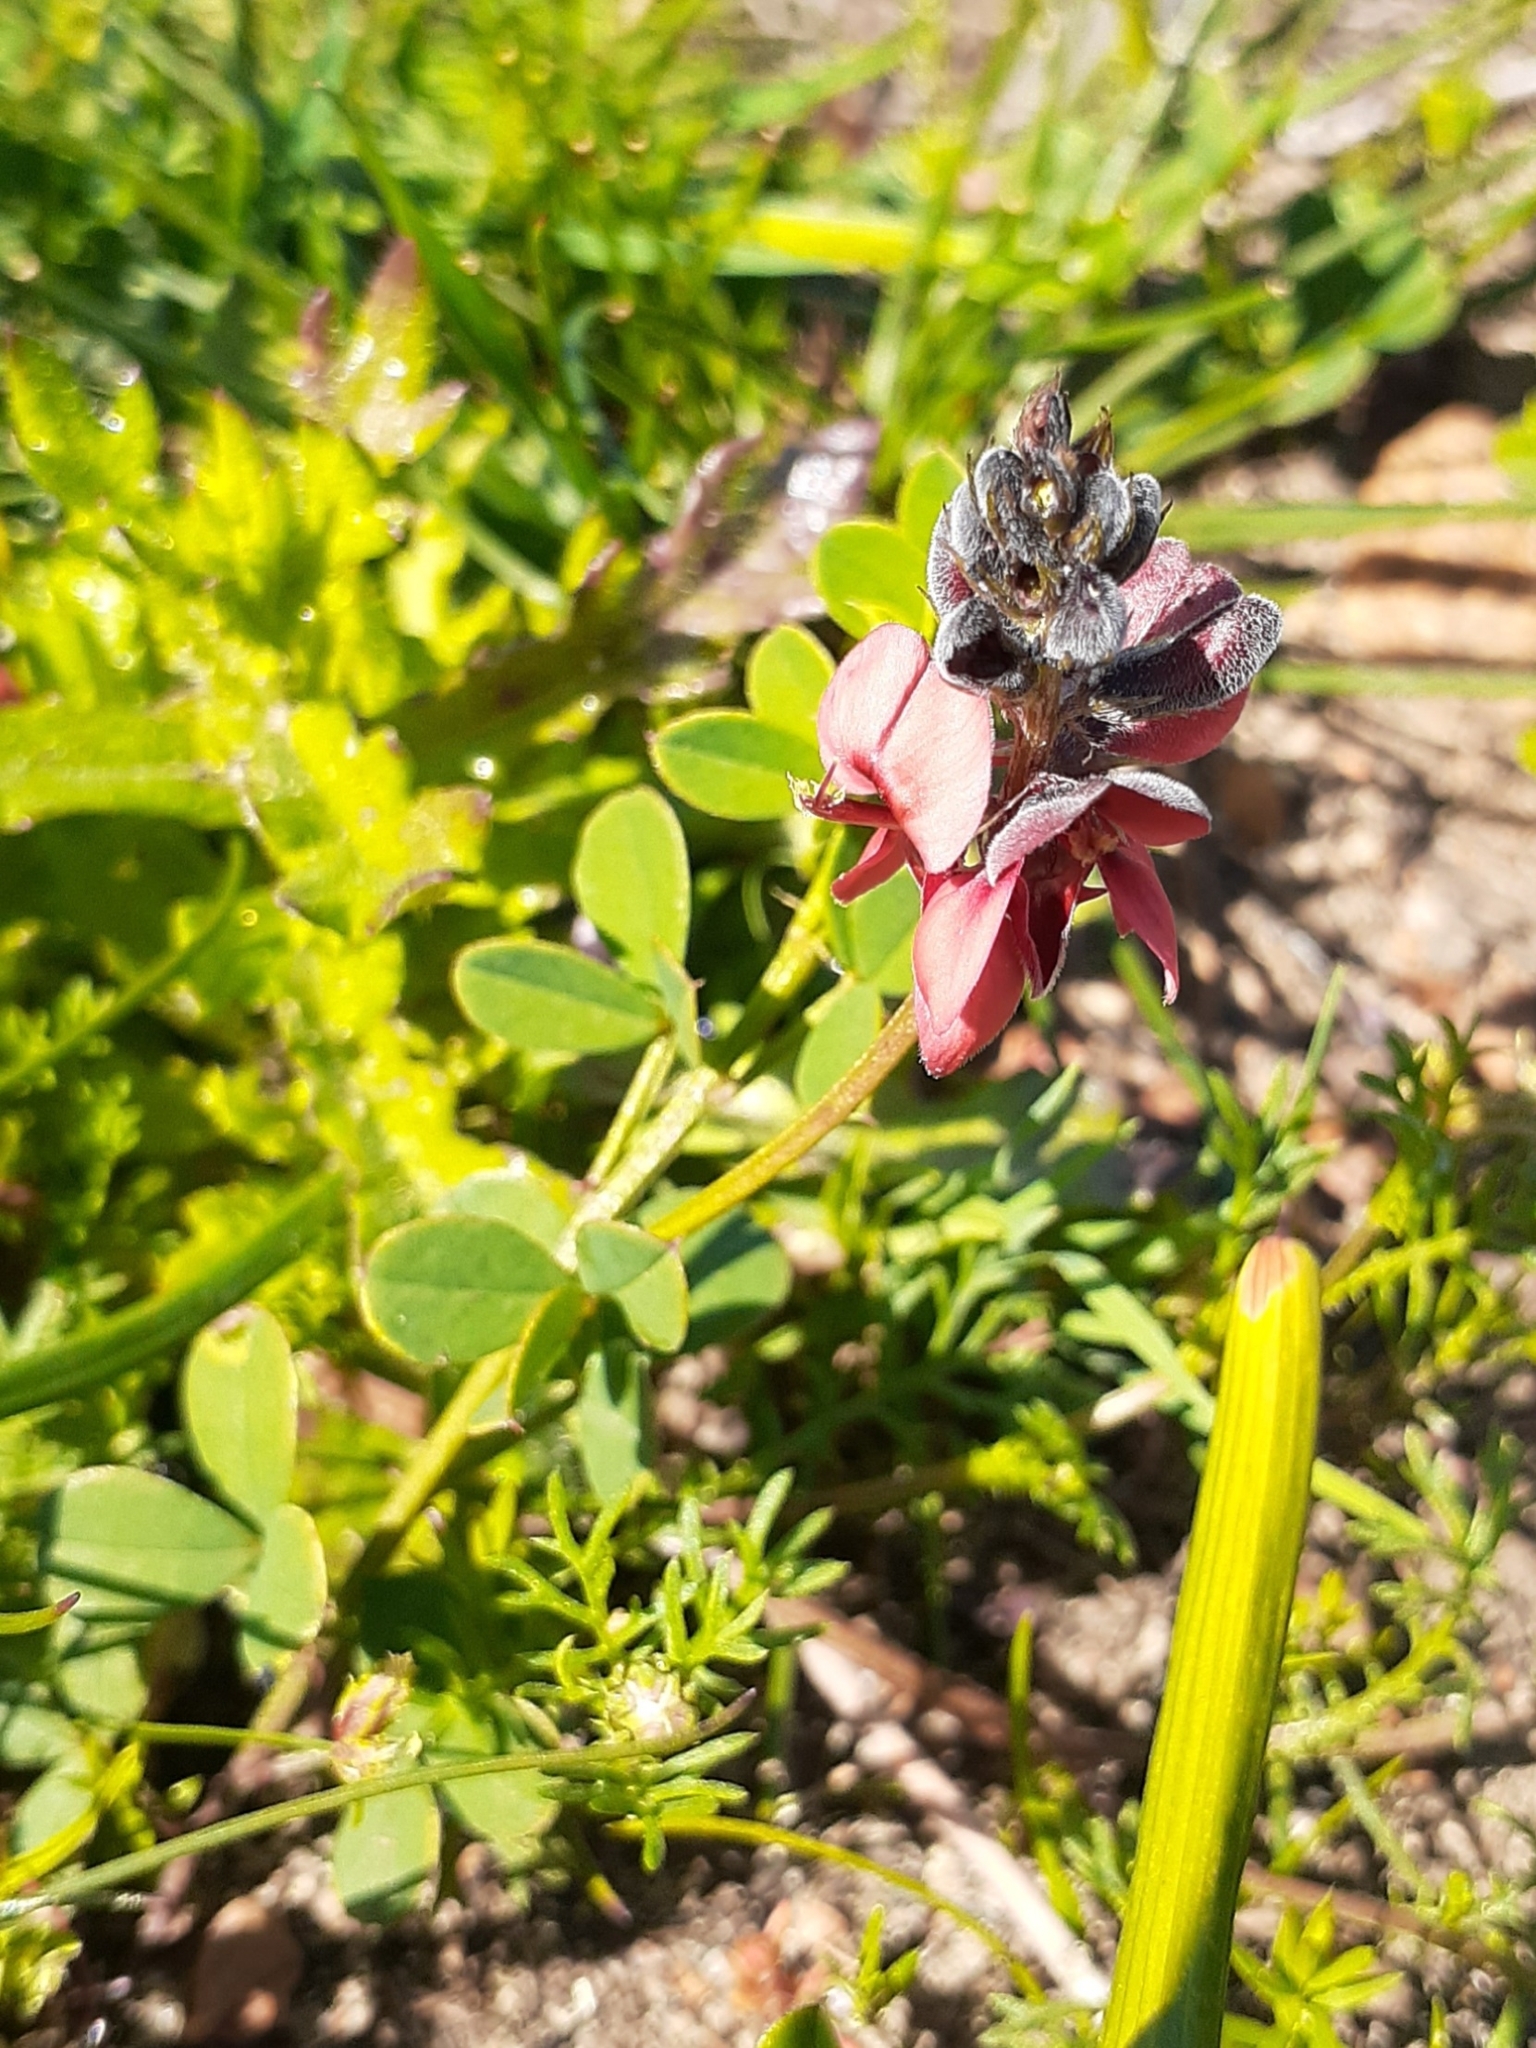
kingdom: Plantae
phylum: Tracheophyta
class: Magnoliopsida
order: Fabales
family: Fabaceae
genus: Indigofera
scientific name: Indigofera heterophylla
